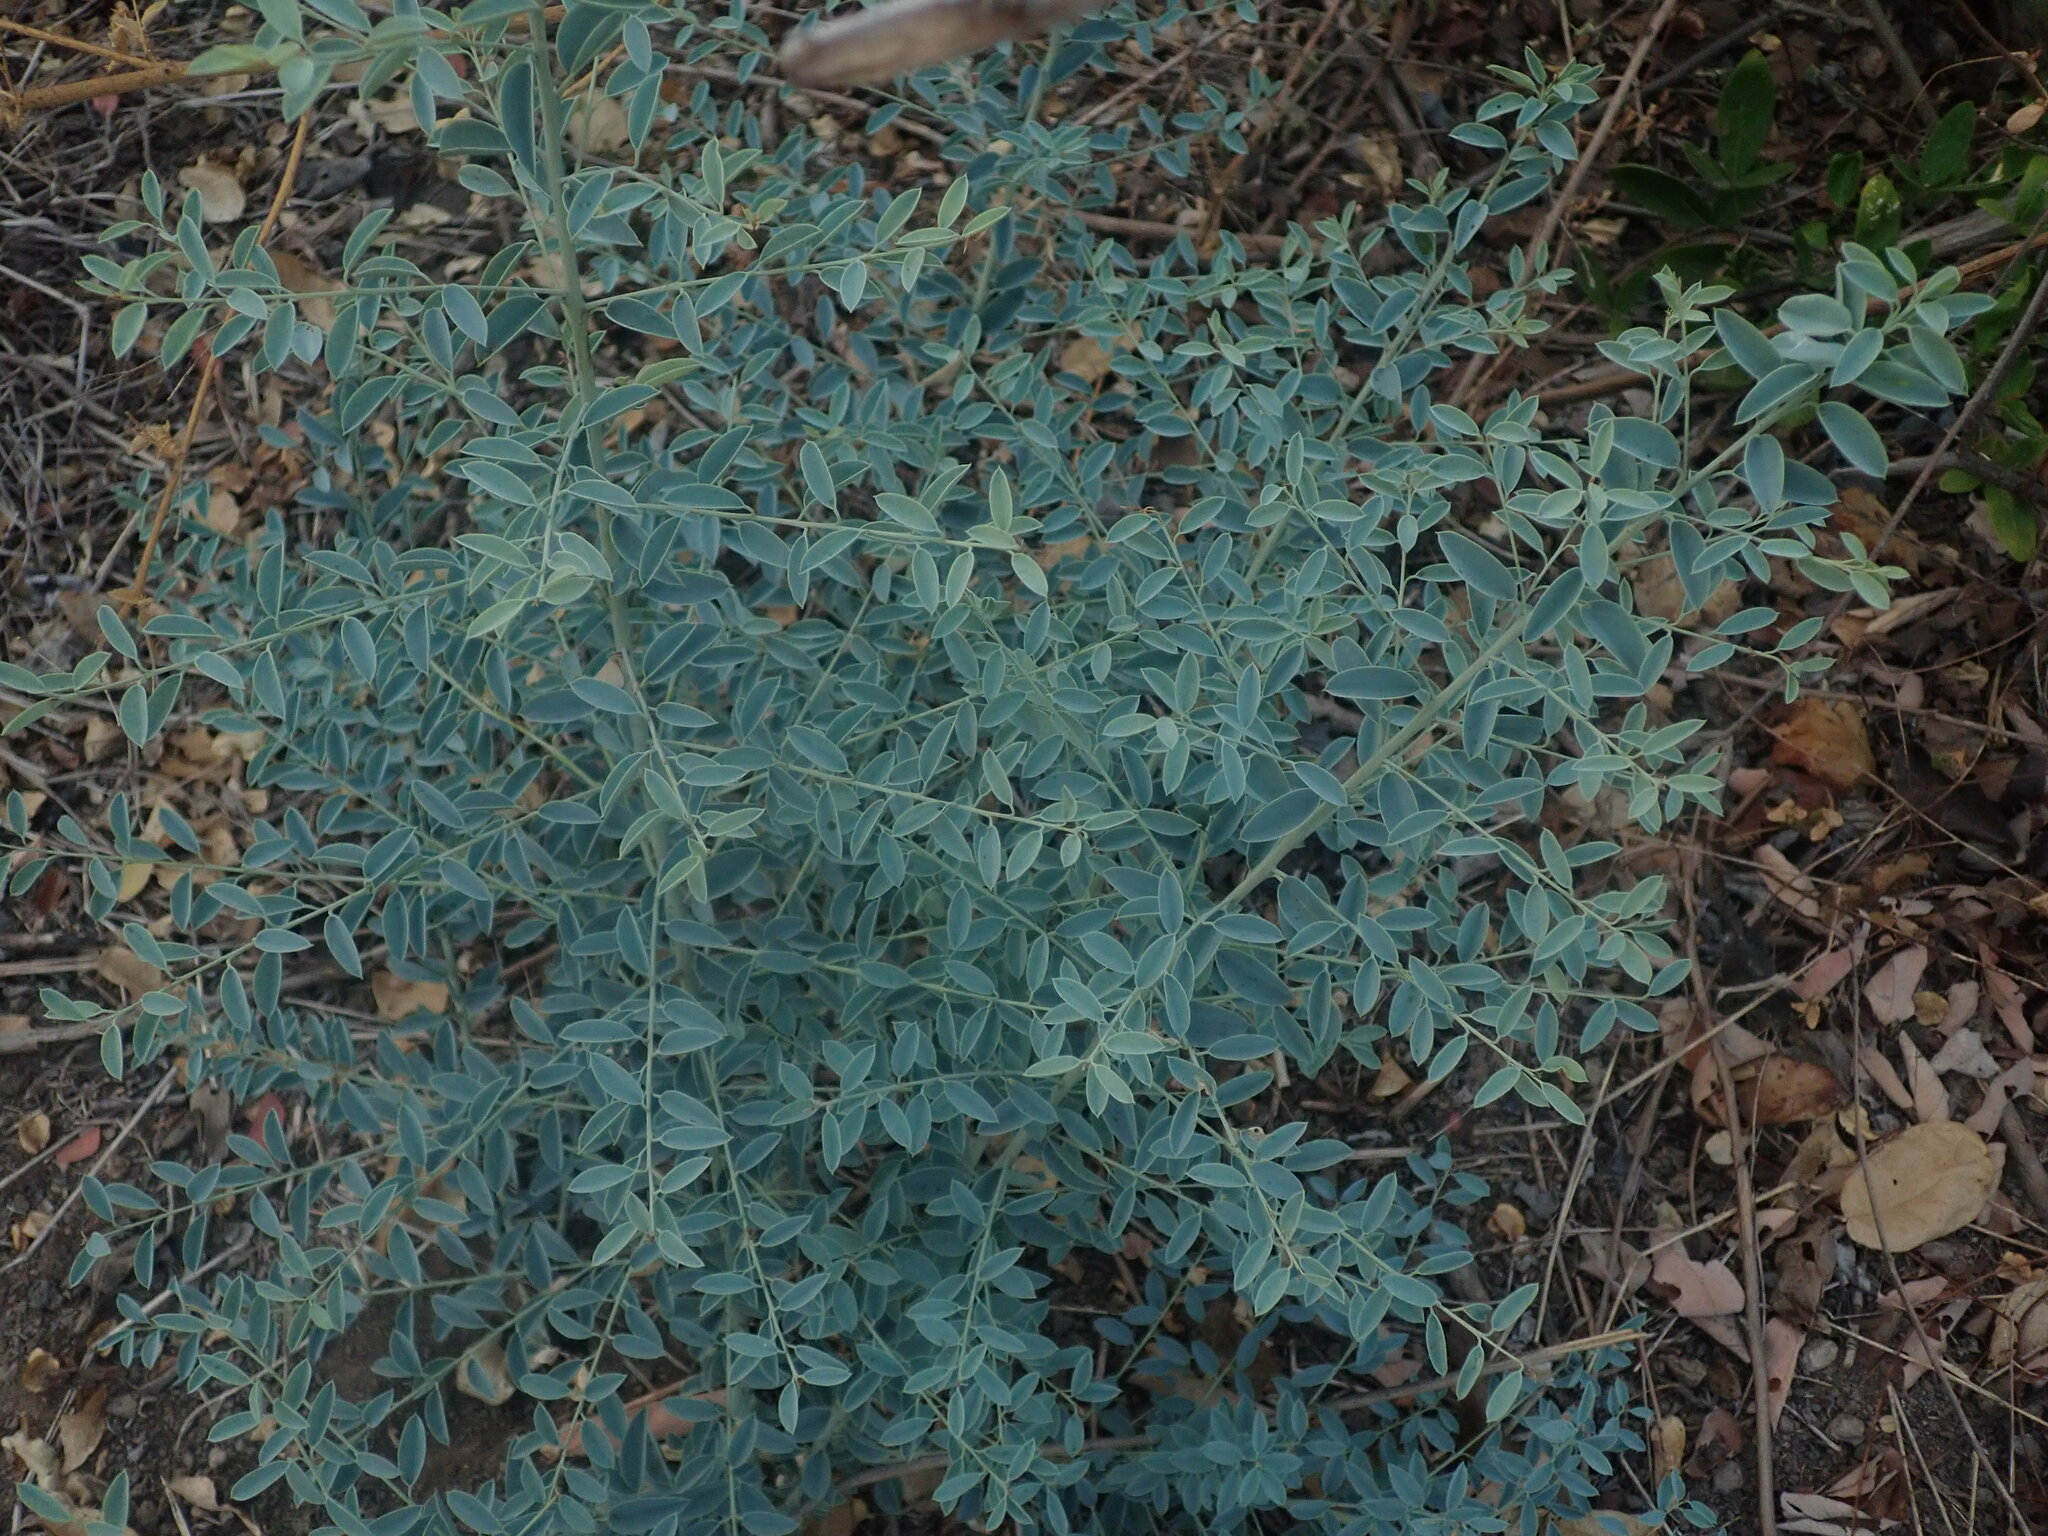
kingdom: Plantae
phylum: Tracheophyta
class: Magnoliopsida
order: Brassicales
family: Capparaceae
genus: Maerua
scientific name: Maerua decumbens
